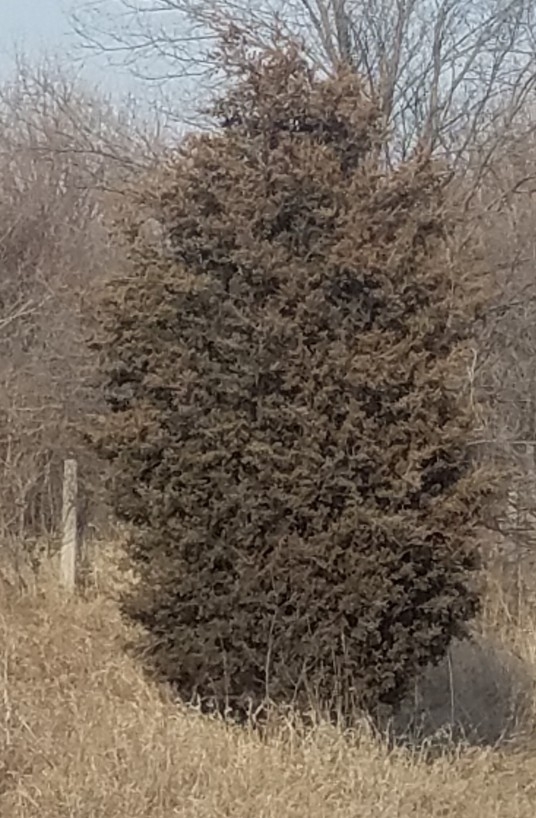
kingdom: Plantae
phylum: Tracheophyta
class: Pinopsida
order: Pinales
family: Cupressaceae
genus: Juniperus
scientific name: Juniperus virginiana
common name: Red juniper
